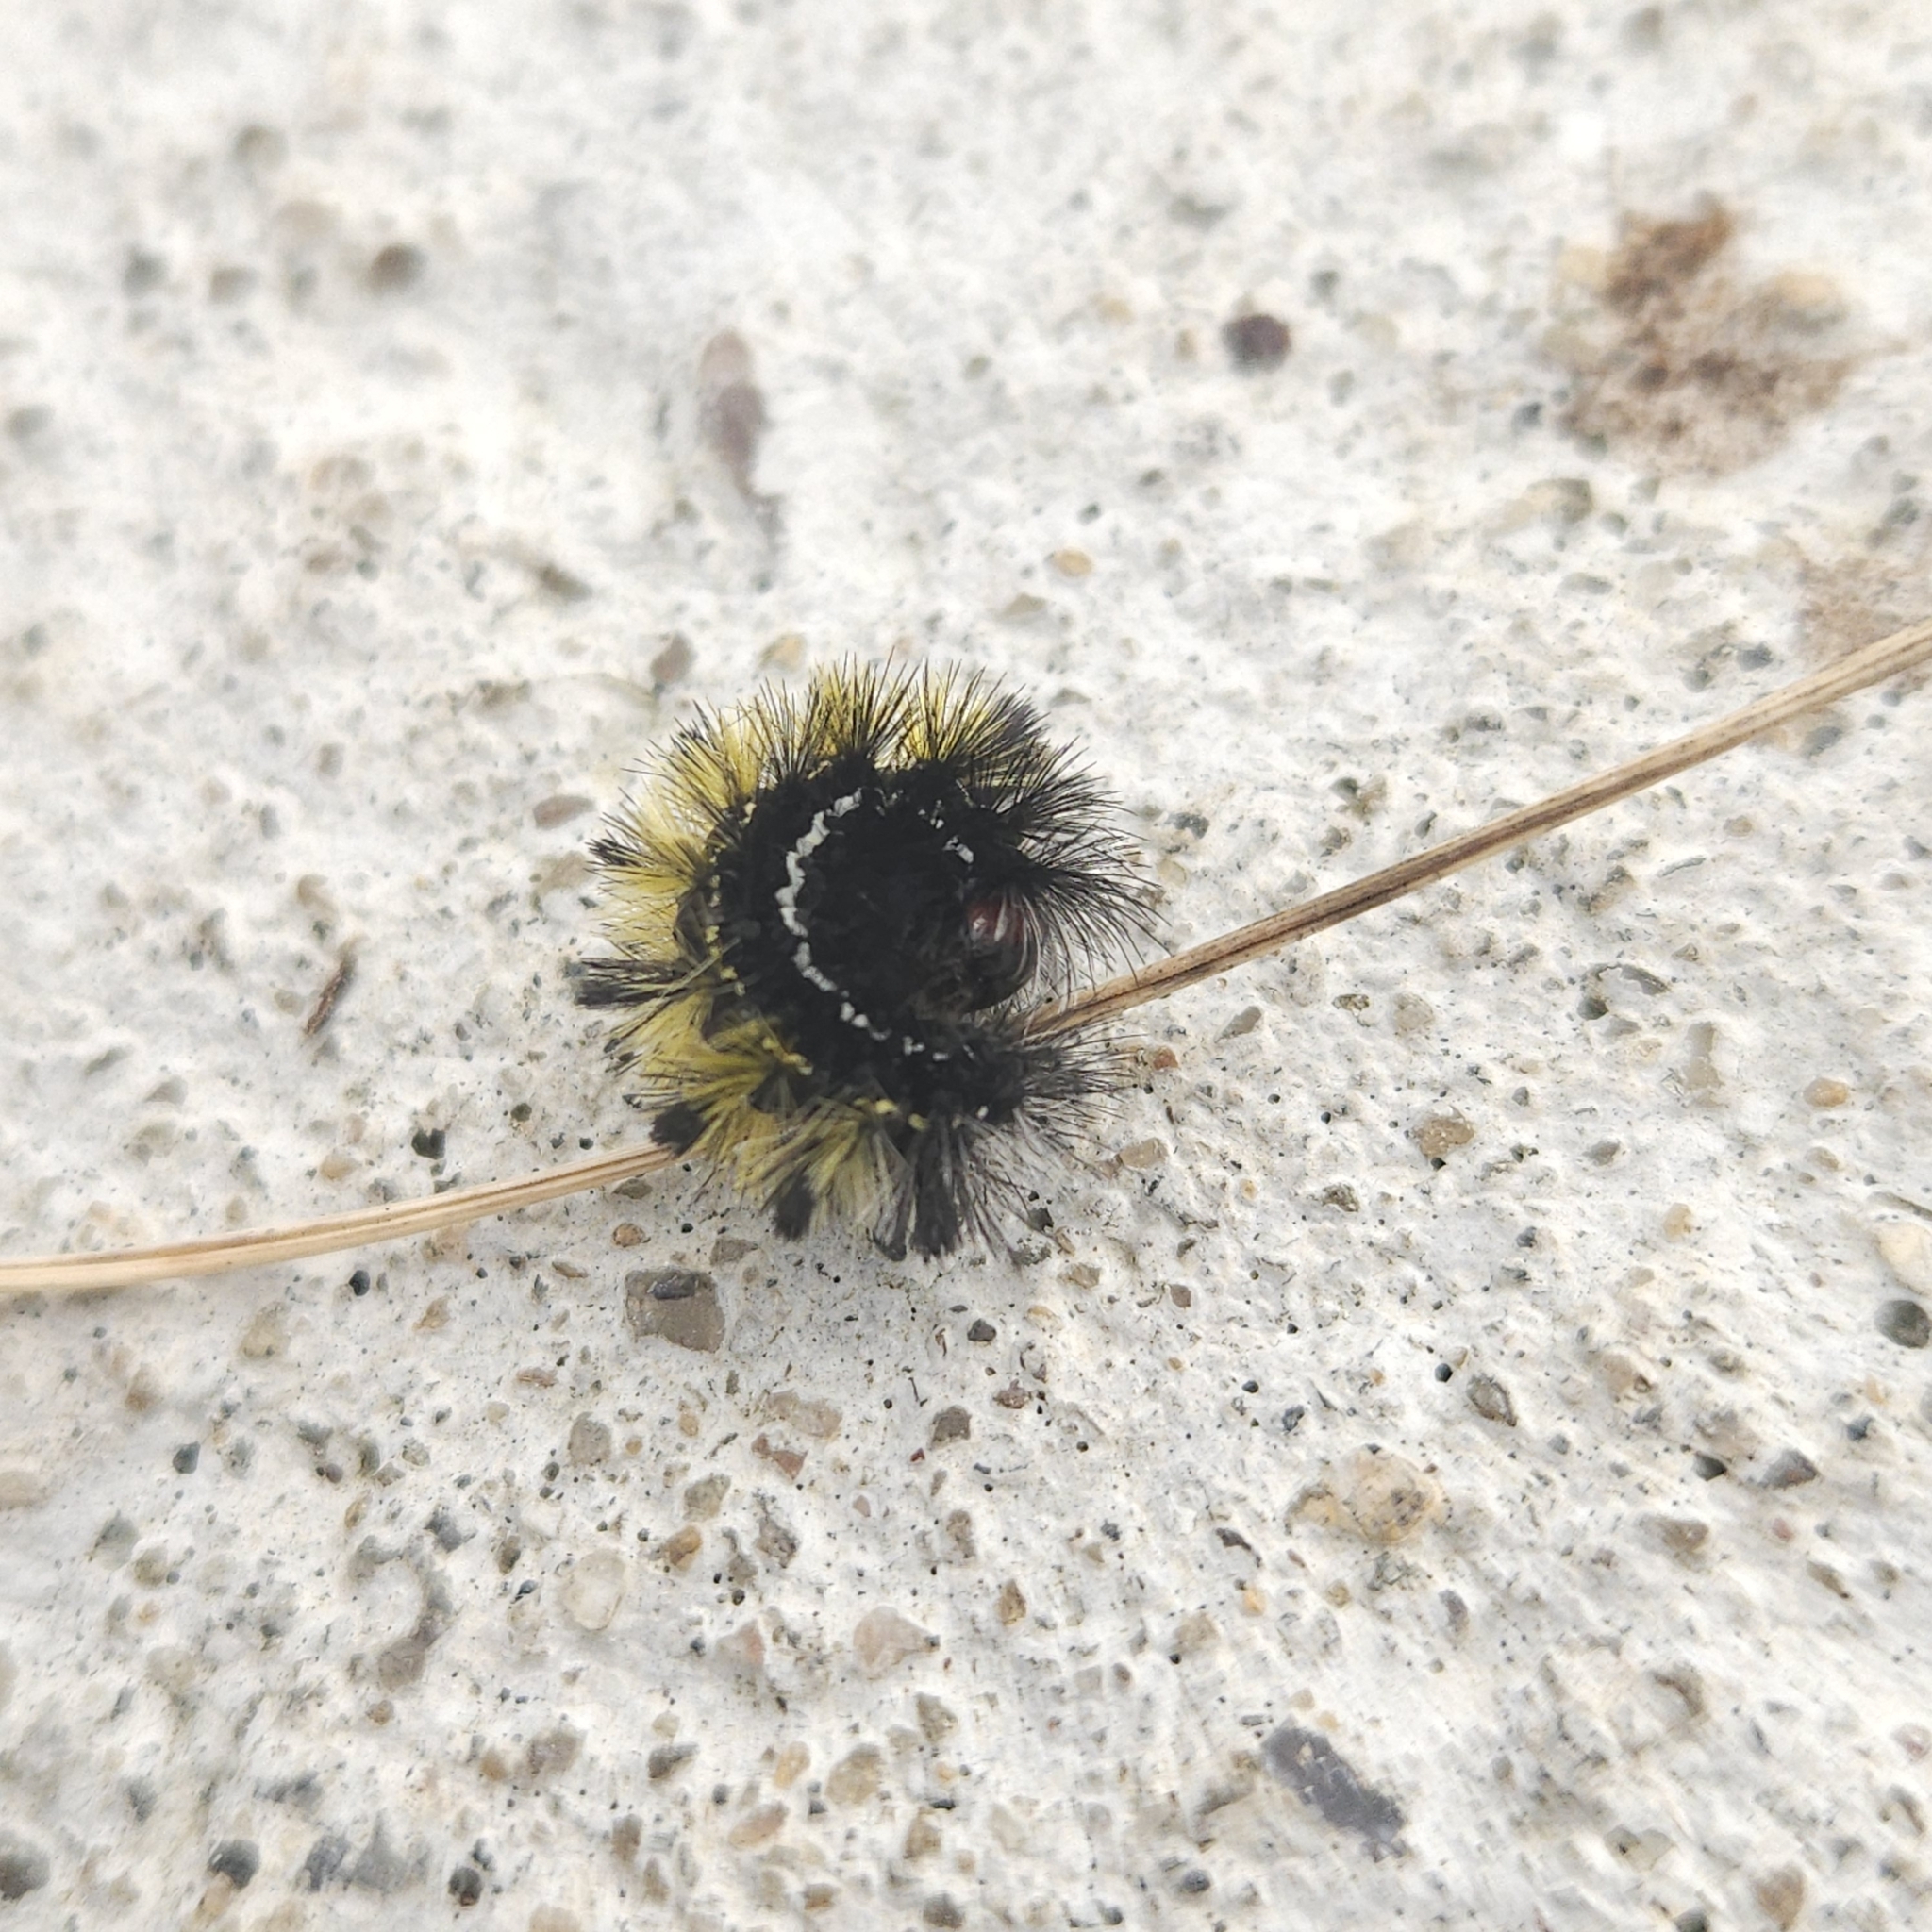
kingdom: Animalia
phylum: Arthropoda
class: Insecta
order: Lepidoptera
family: Erebidae
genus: Ctenucha
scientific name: Ctenucha virginica
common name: Virginia ctenucha moth
